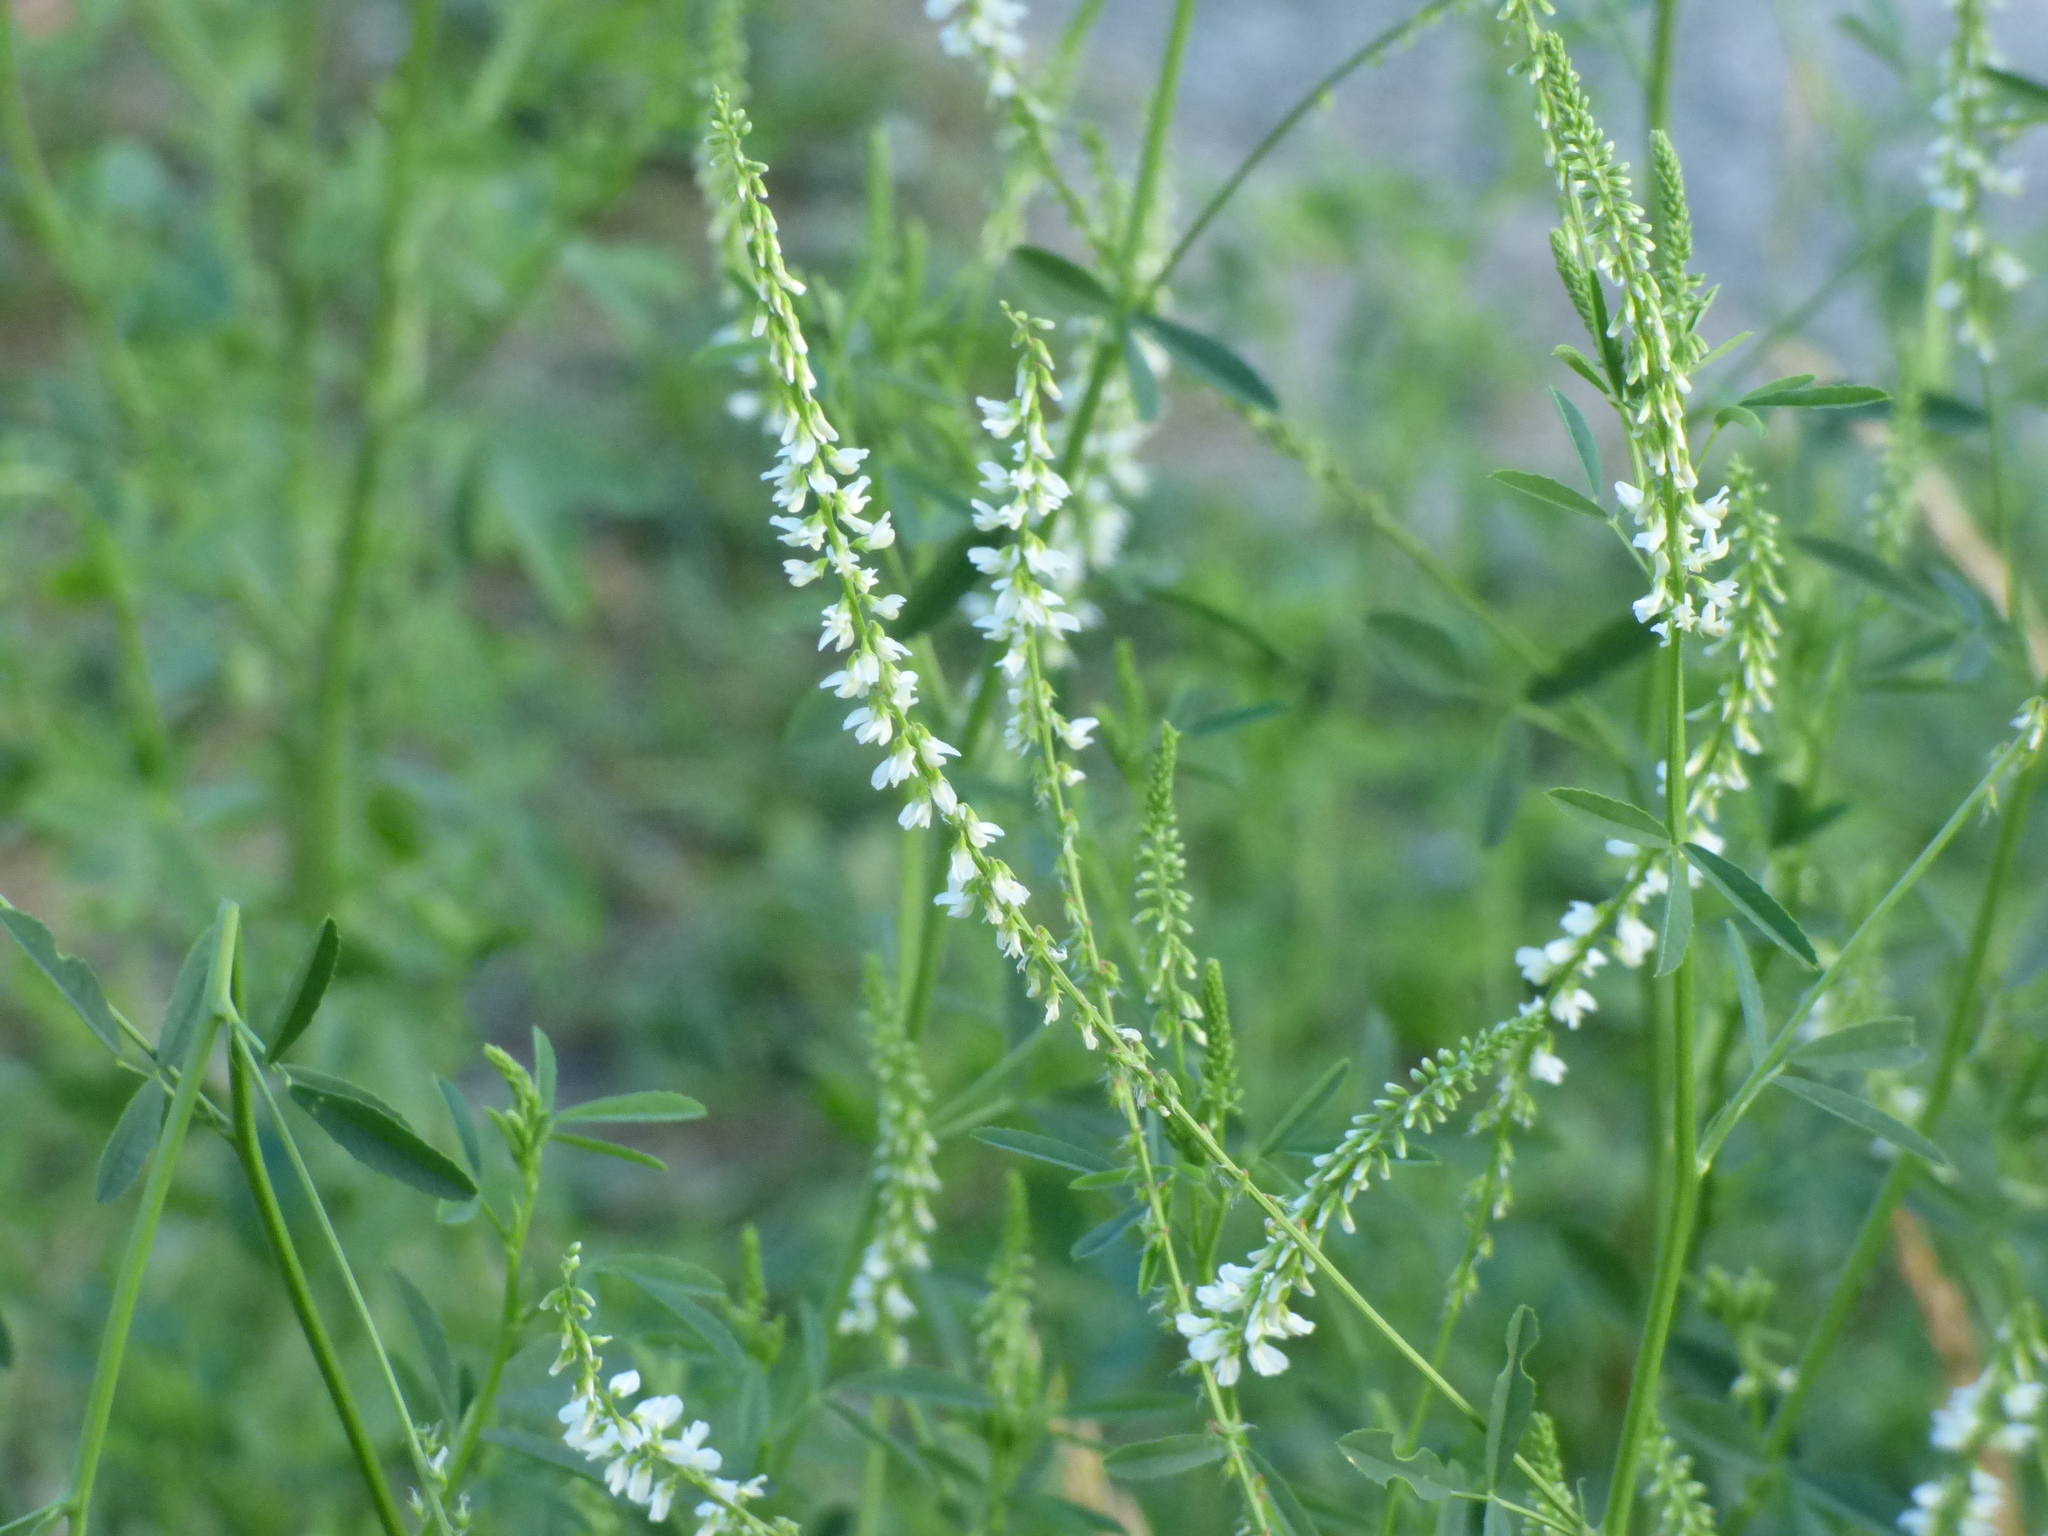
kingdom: Plantae
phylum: Tracheophyta
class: Magnoliopsida
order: Fabales
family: Fabaceae
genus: Melilotus
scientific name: Melilotus albus
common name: White melilot
